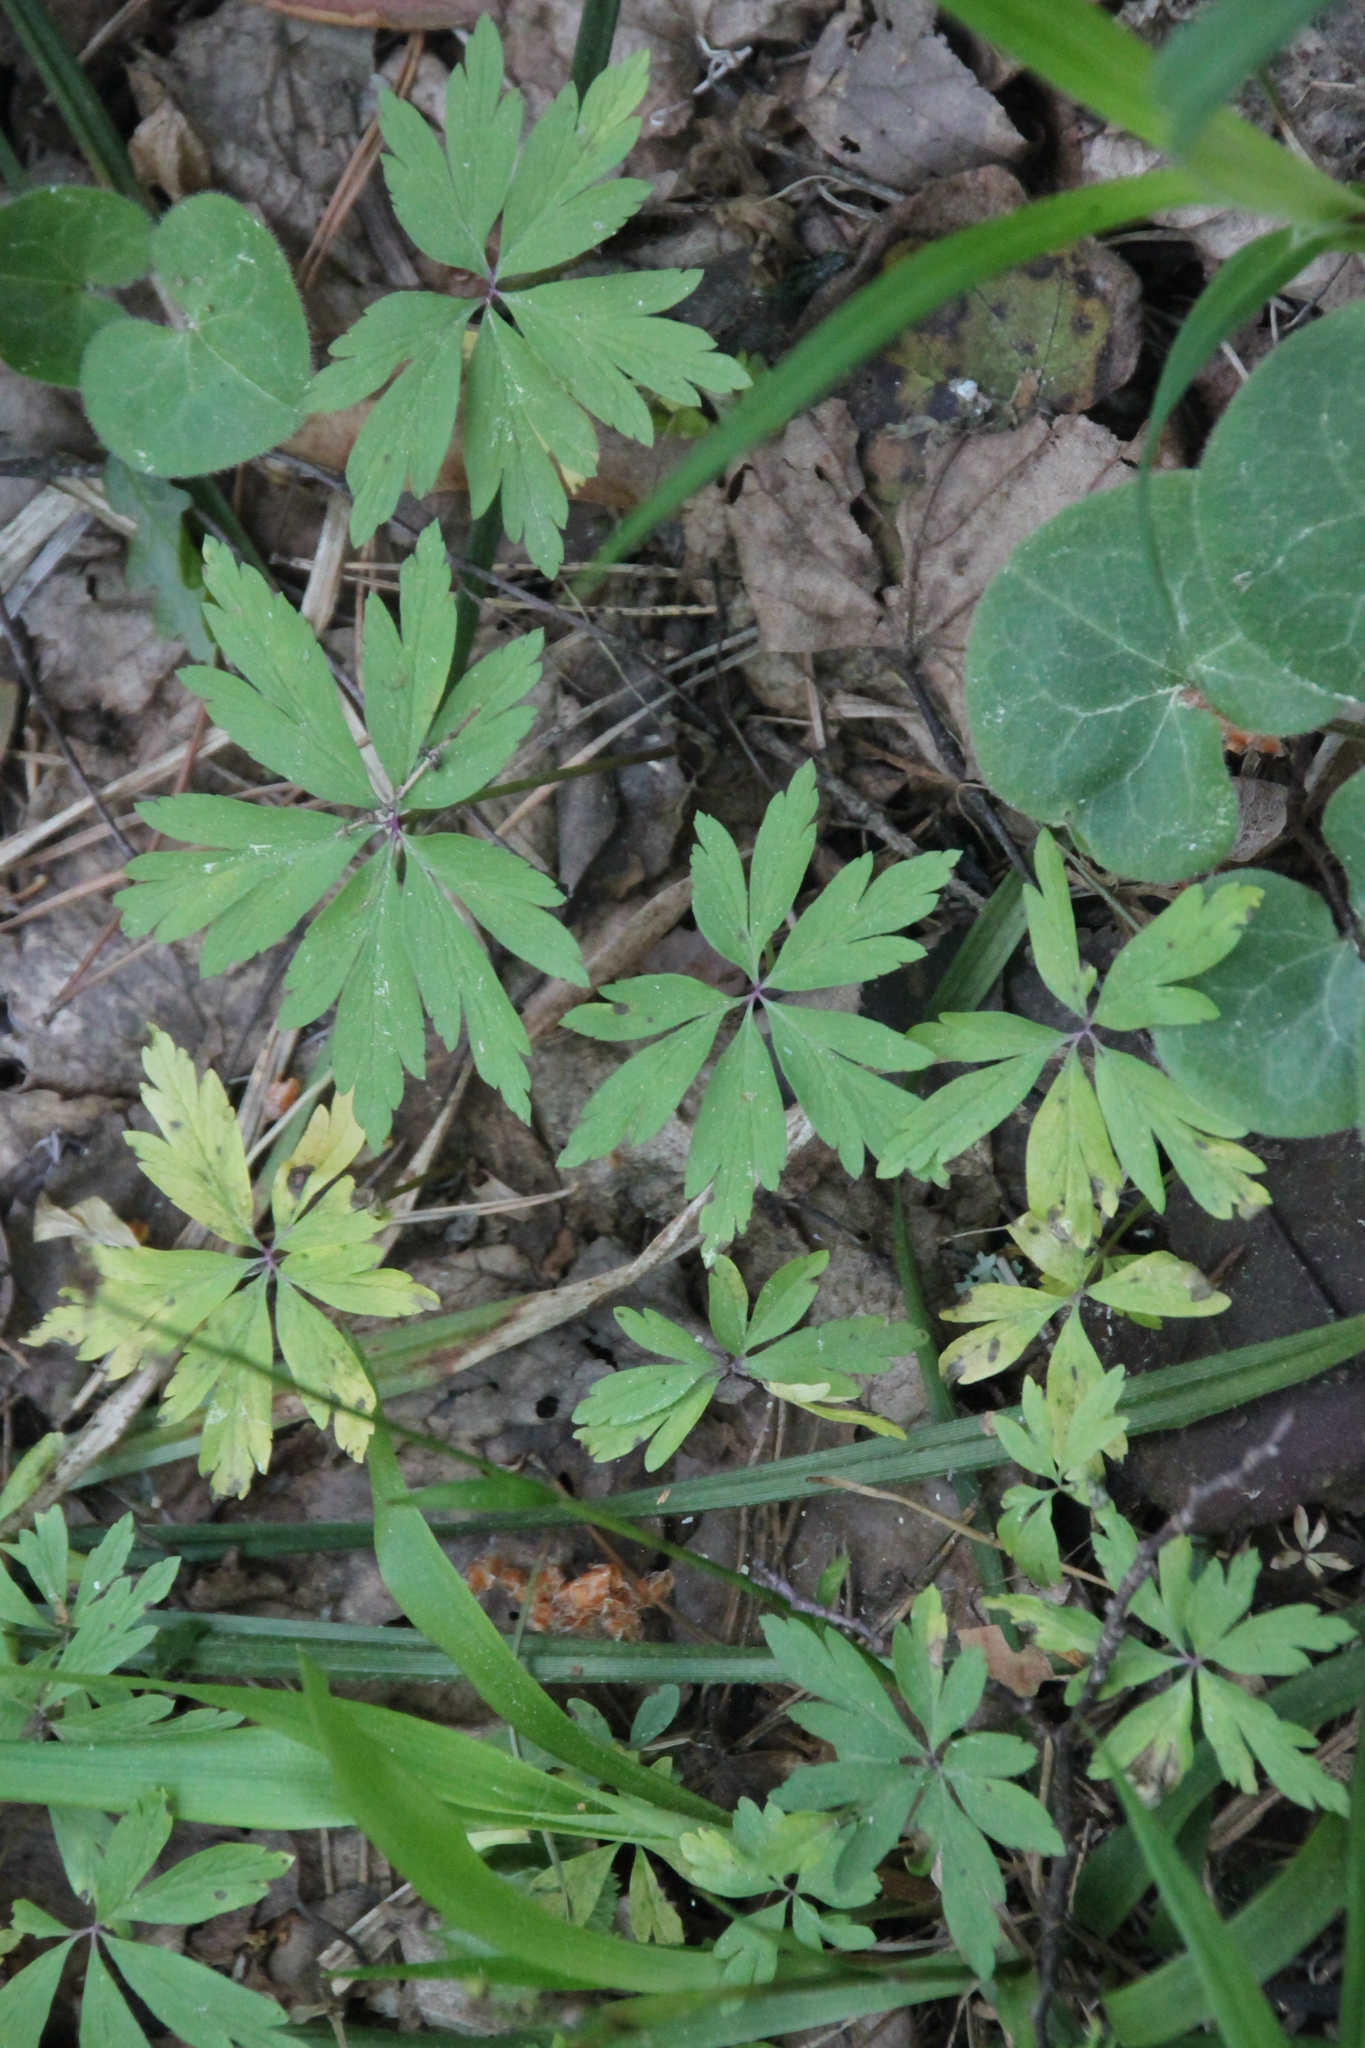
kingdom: Plantae
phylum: Tracheophyta
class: Magnoliopsida
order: Ranunculales
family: Ranunculaceae
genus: Anemone
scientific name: Anemone ranunculoides
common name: Yellow anemone
